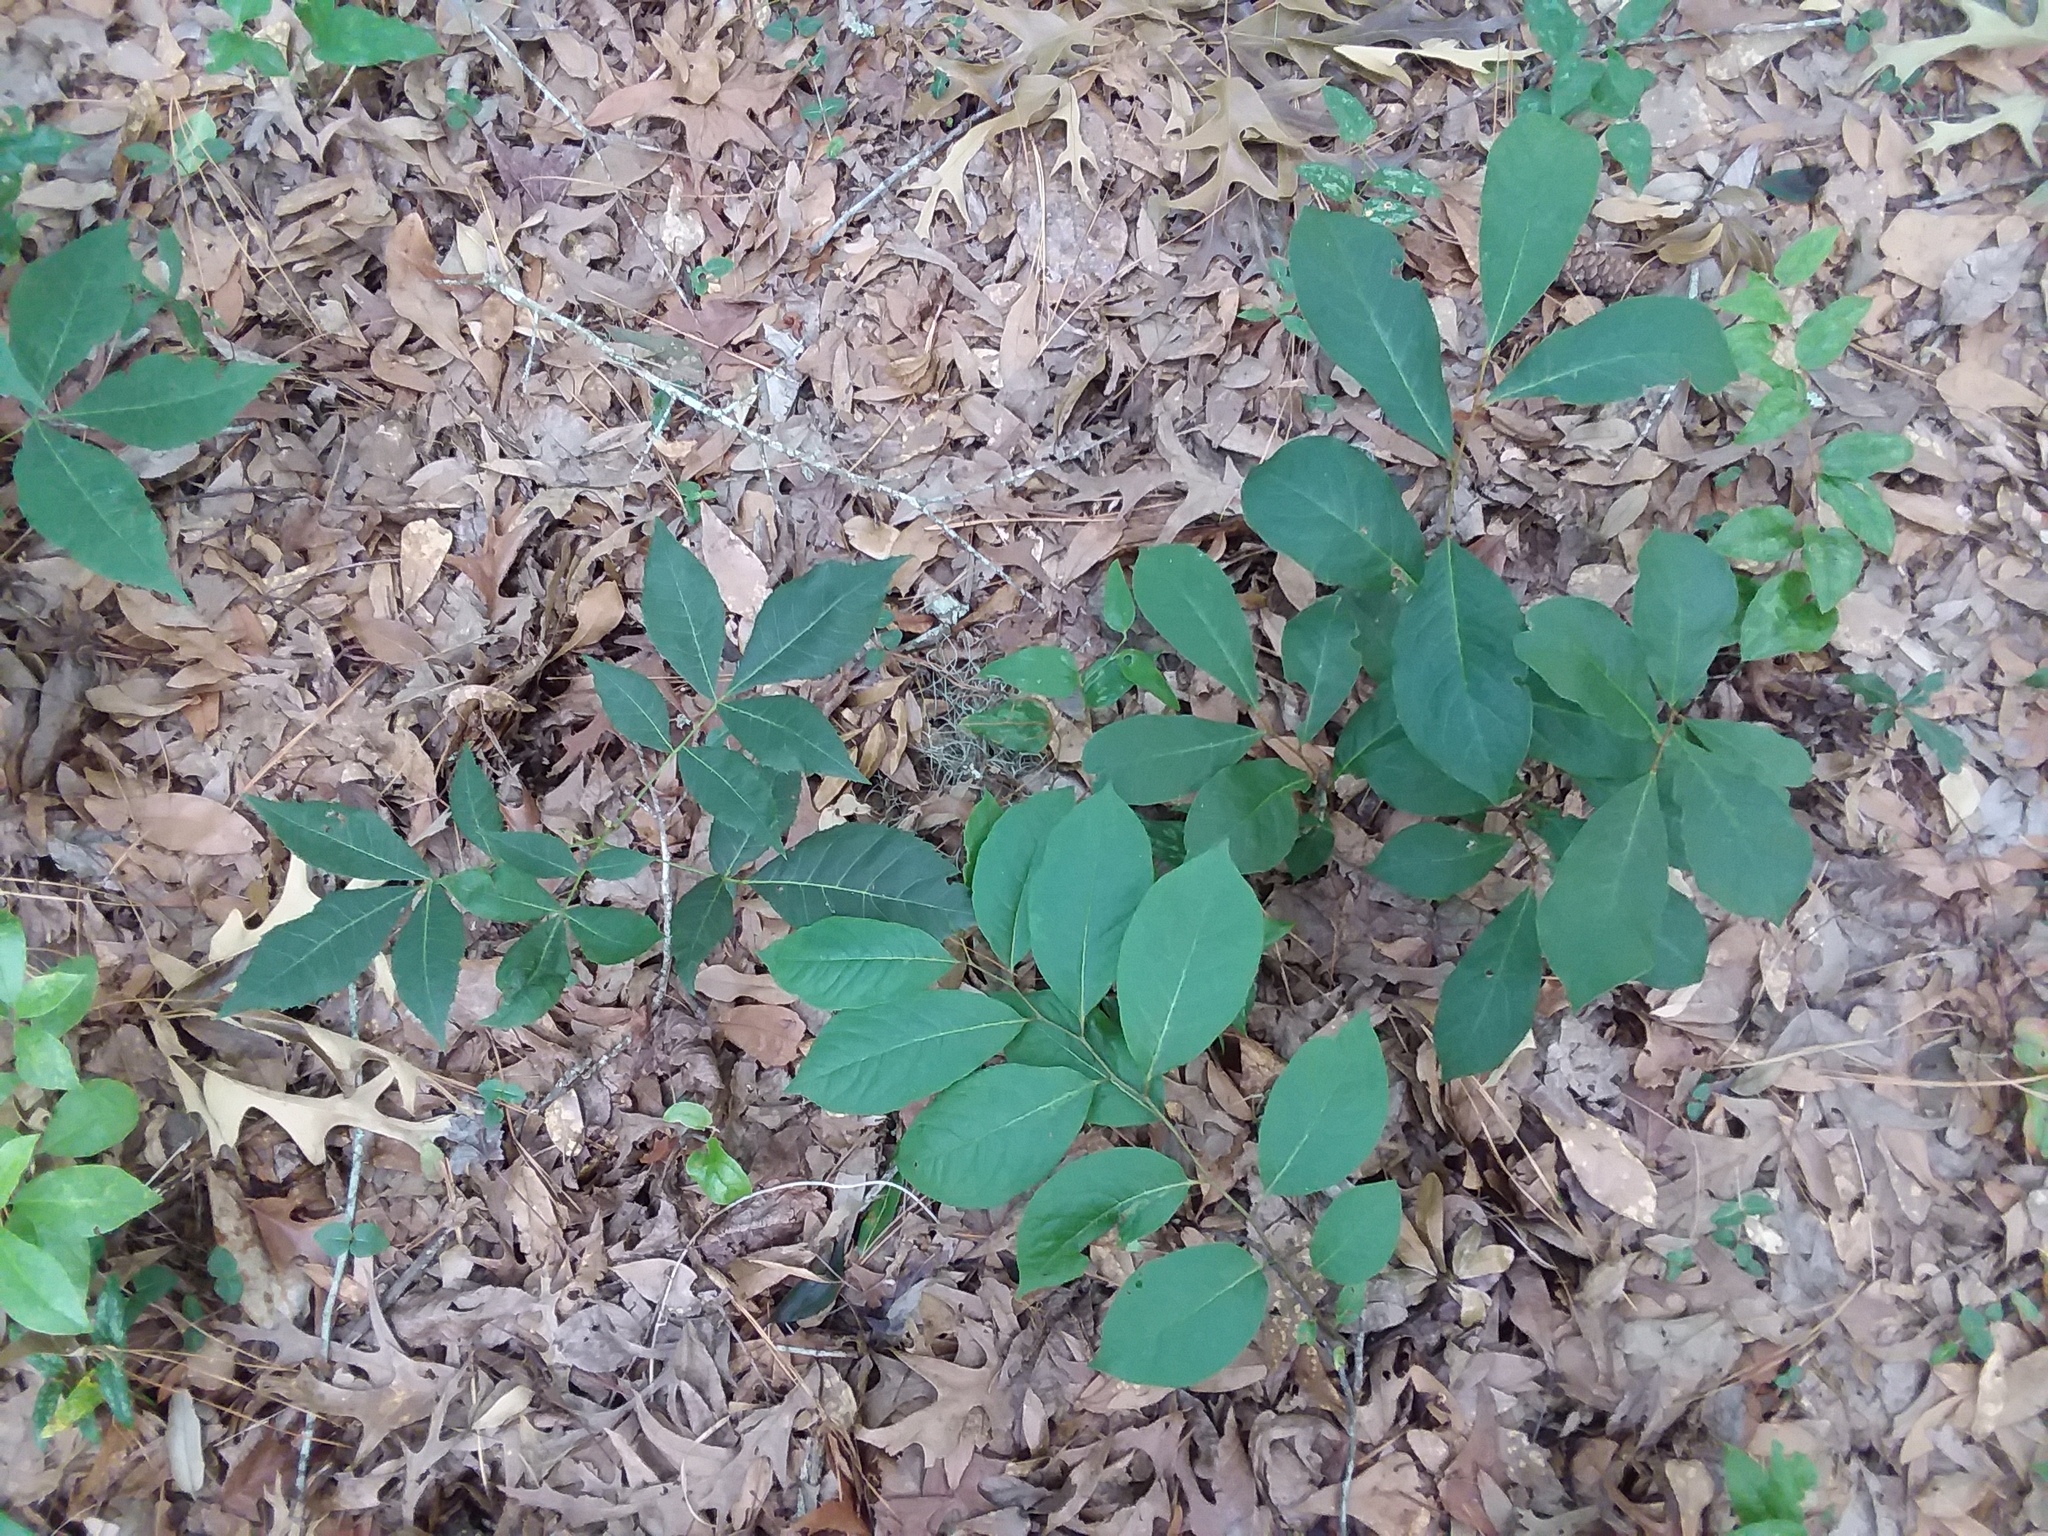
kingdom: Plantae
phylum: Tracheophyta
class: Magnoliopsida
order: Magnoliales
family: Annonaceae
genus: Asimina
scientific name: Asimina parviflora
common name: Dwarf pawpaw
